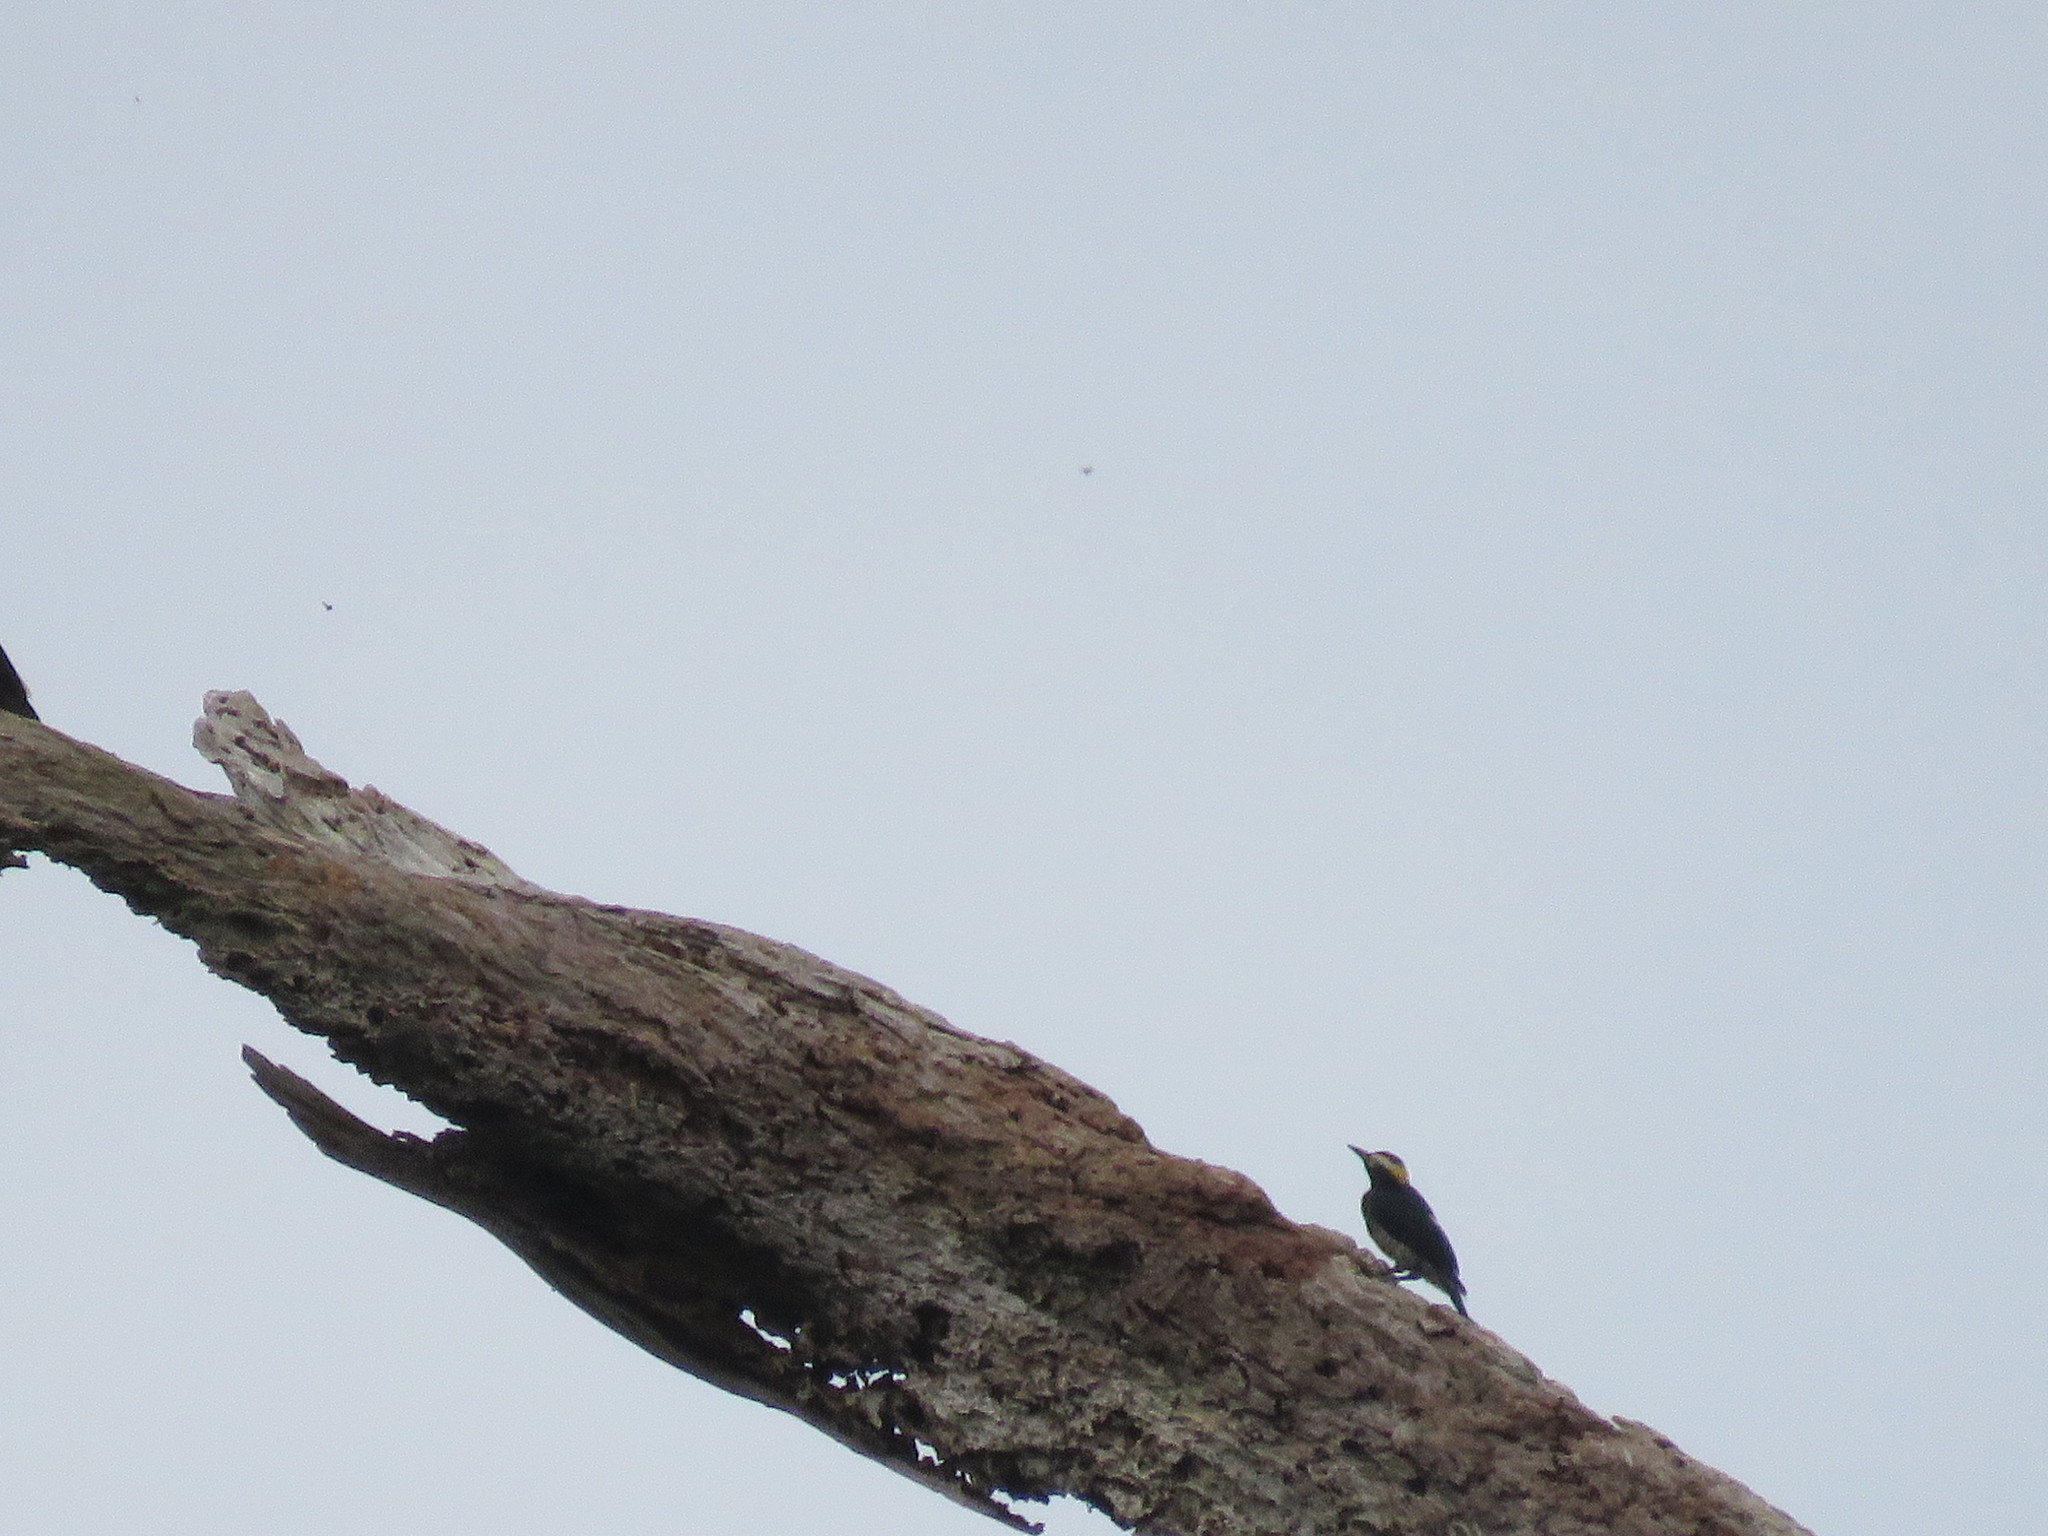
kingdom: Animalia
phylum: Chordata
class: Aves
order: Piciformes
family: Picidae
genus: Melanerpes
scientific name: Melanerpes cruentatus
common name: Yellow-tufted woodpecker
